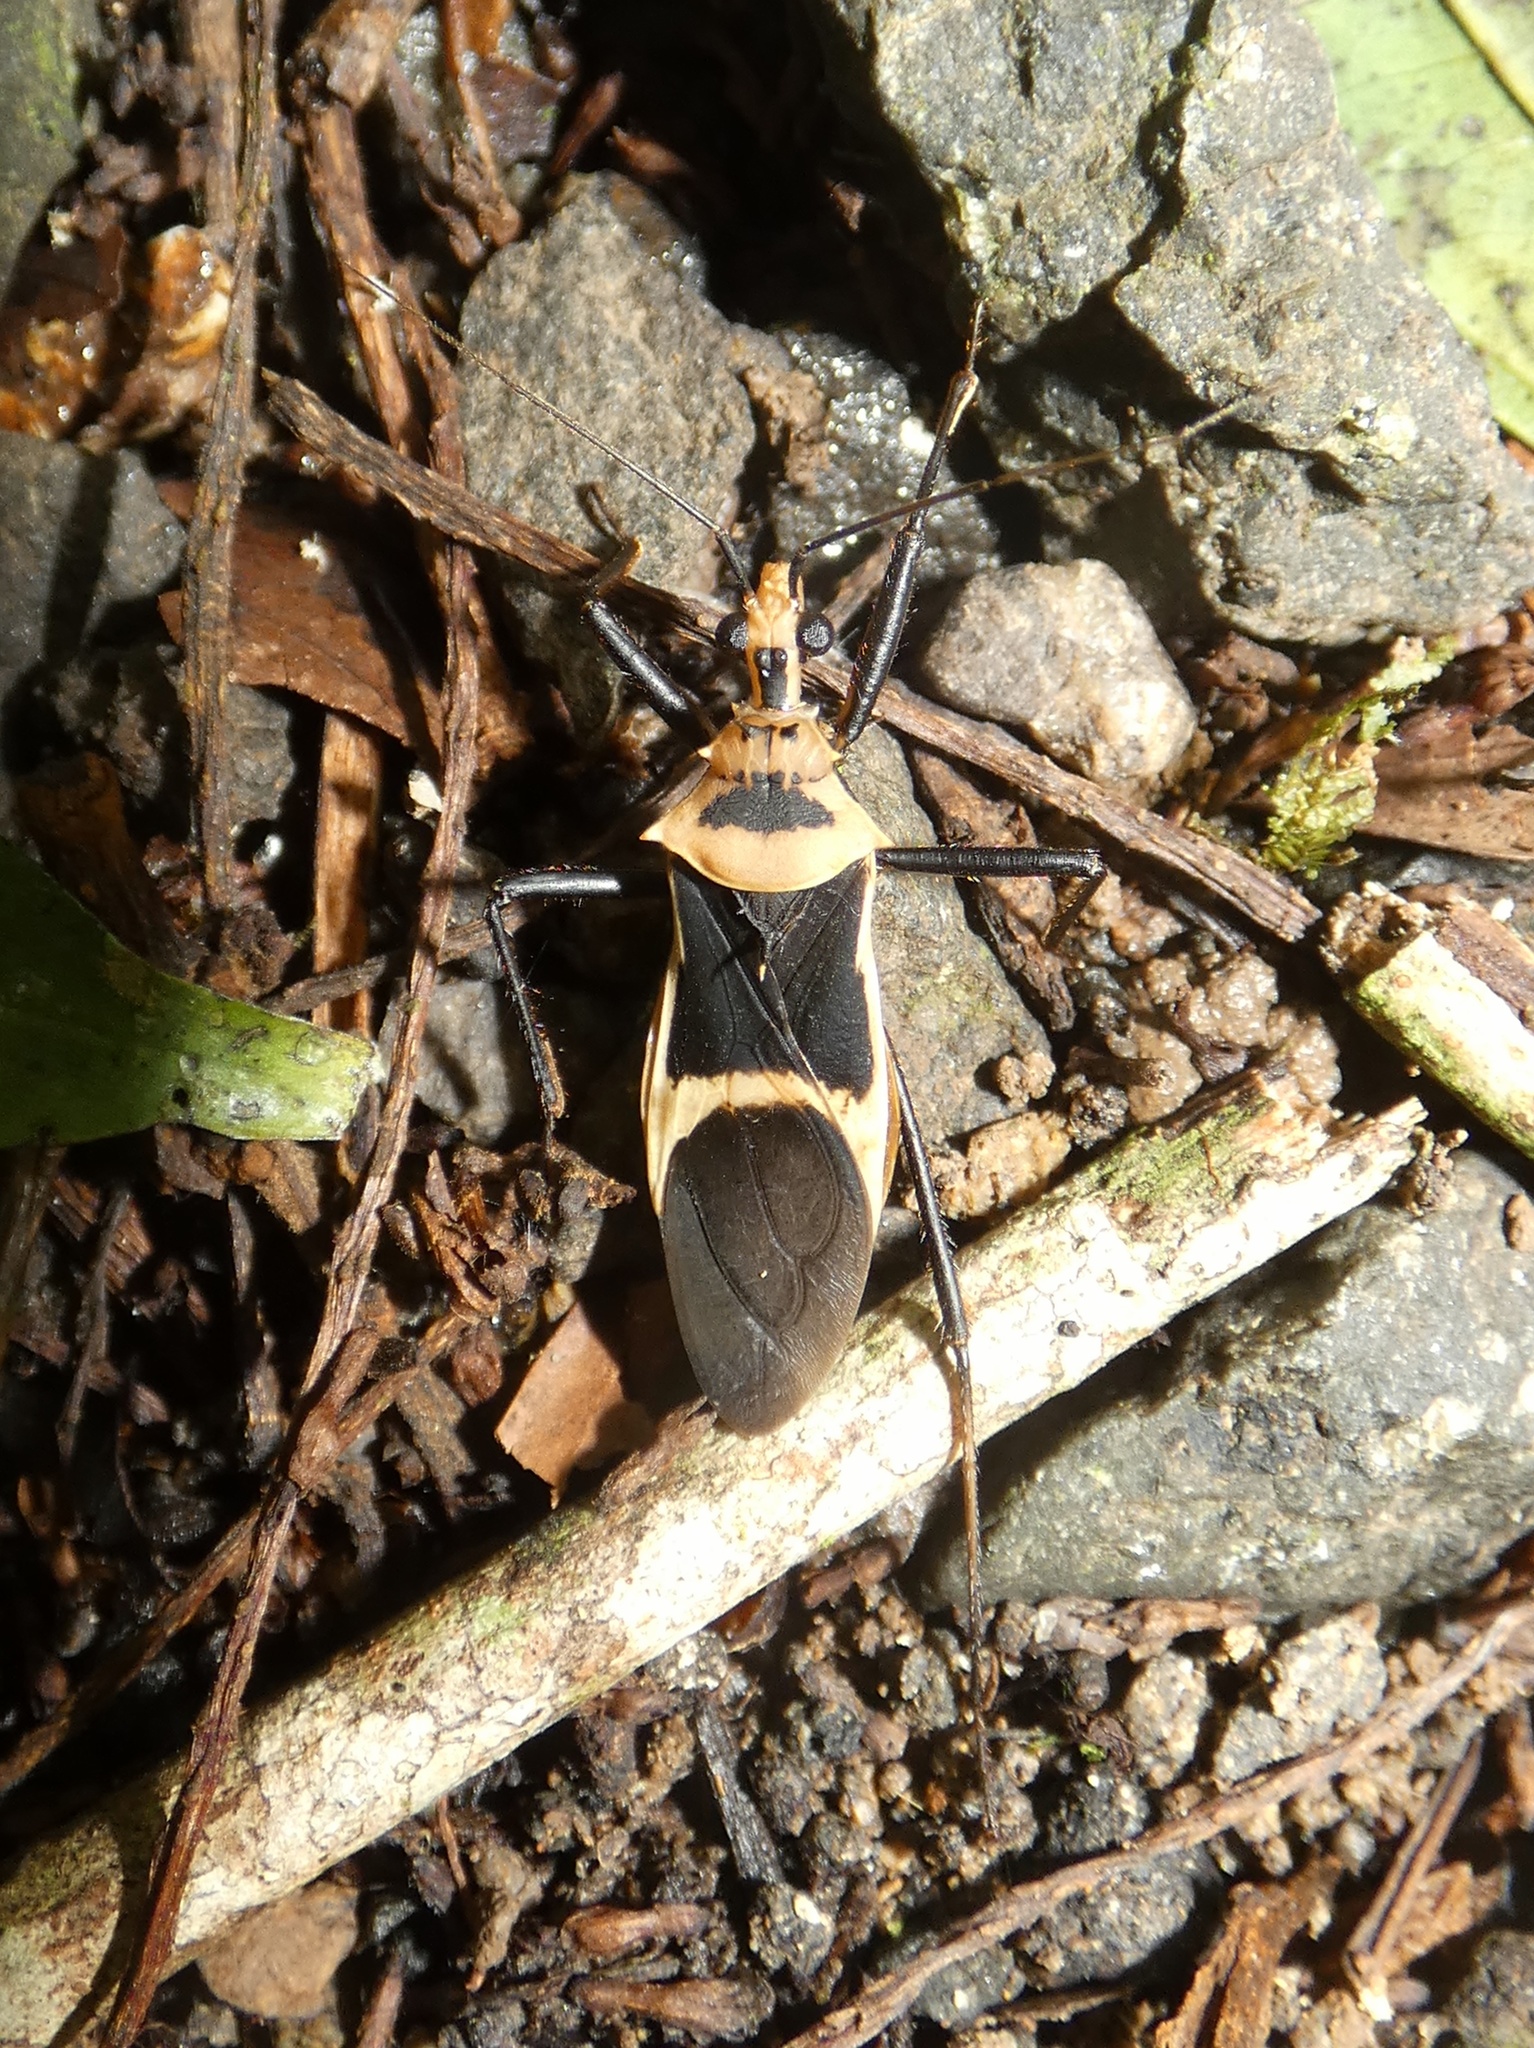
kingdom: Animalia
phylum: Arthropoda
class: Insecta
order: Hemiptera
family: Reduviidae
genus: Zelurus
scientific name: Zelurus circumcinctus
